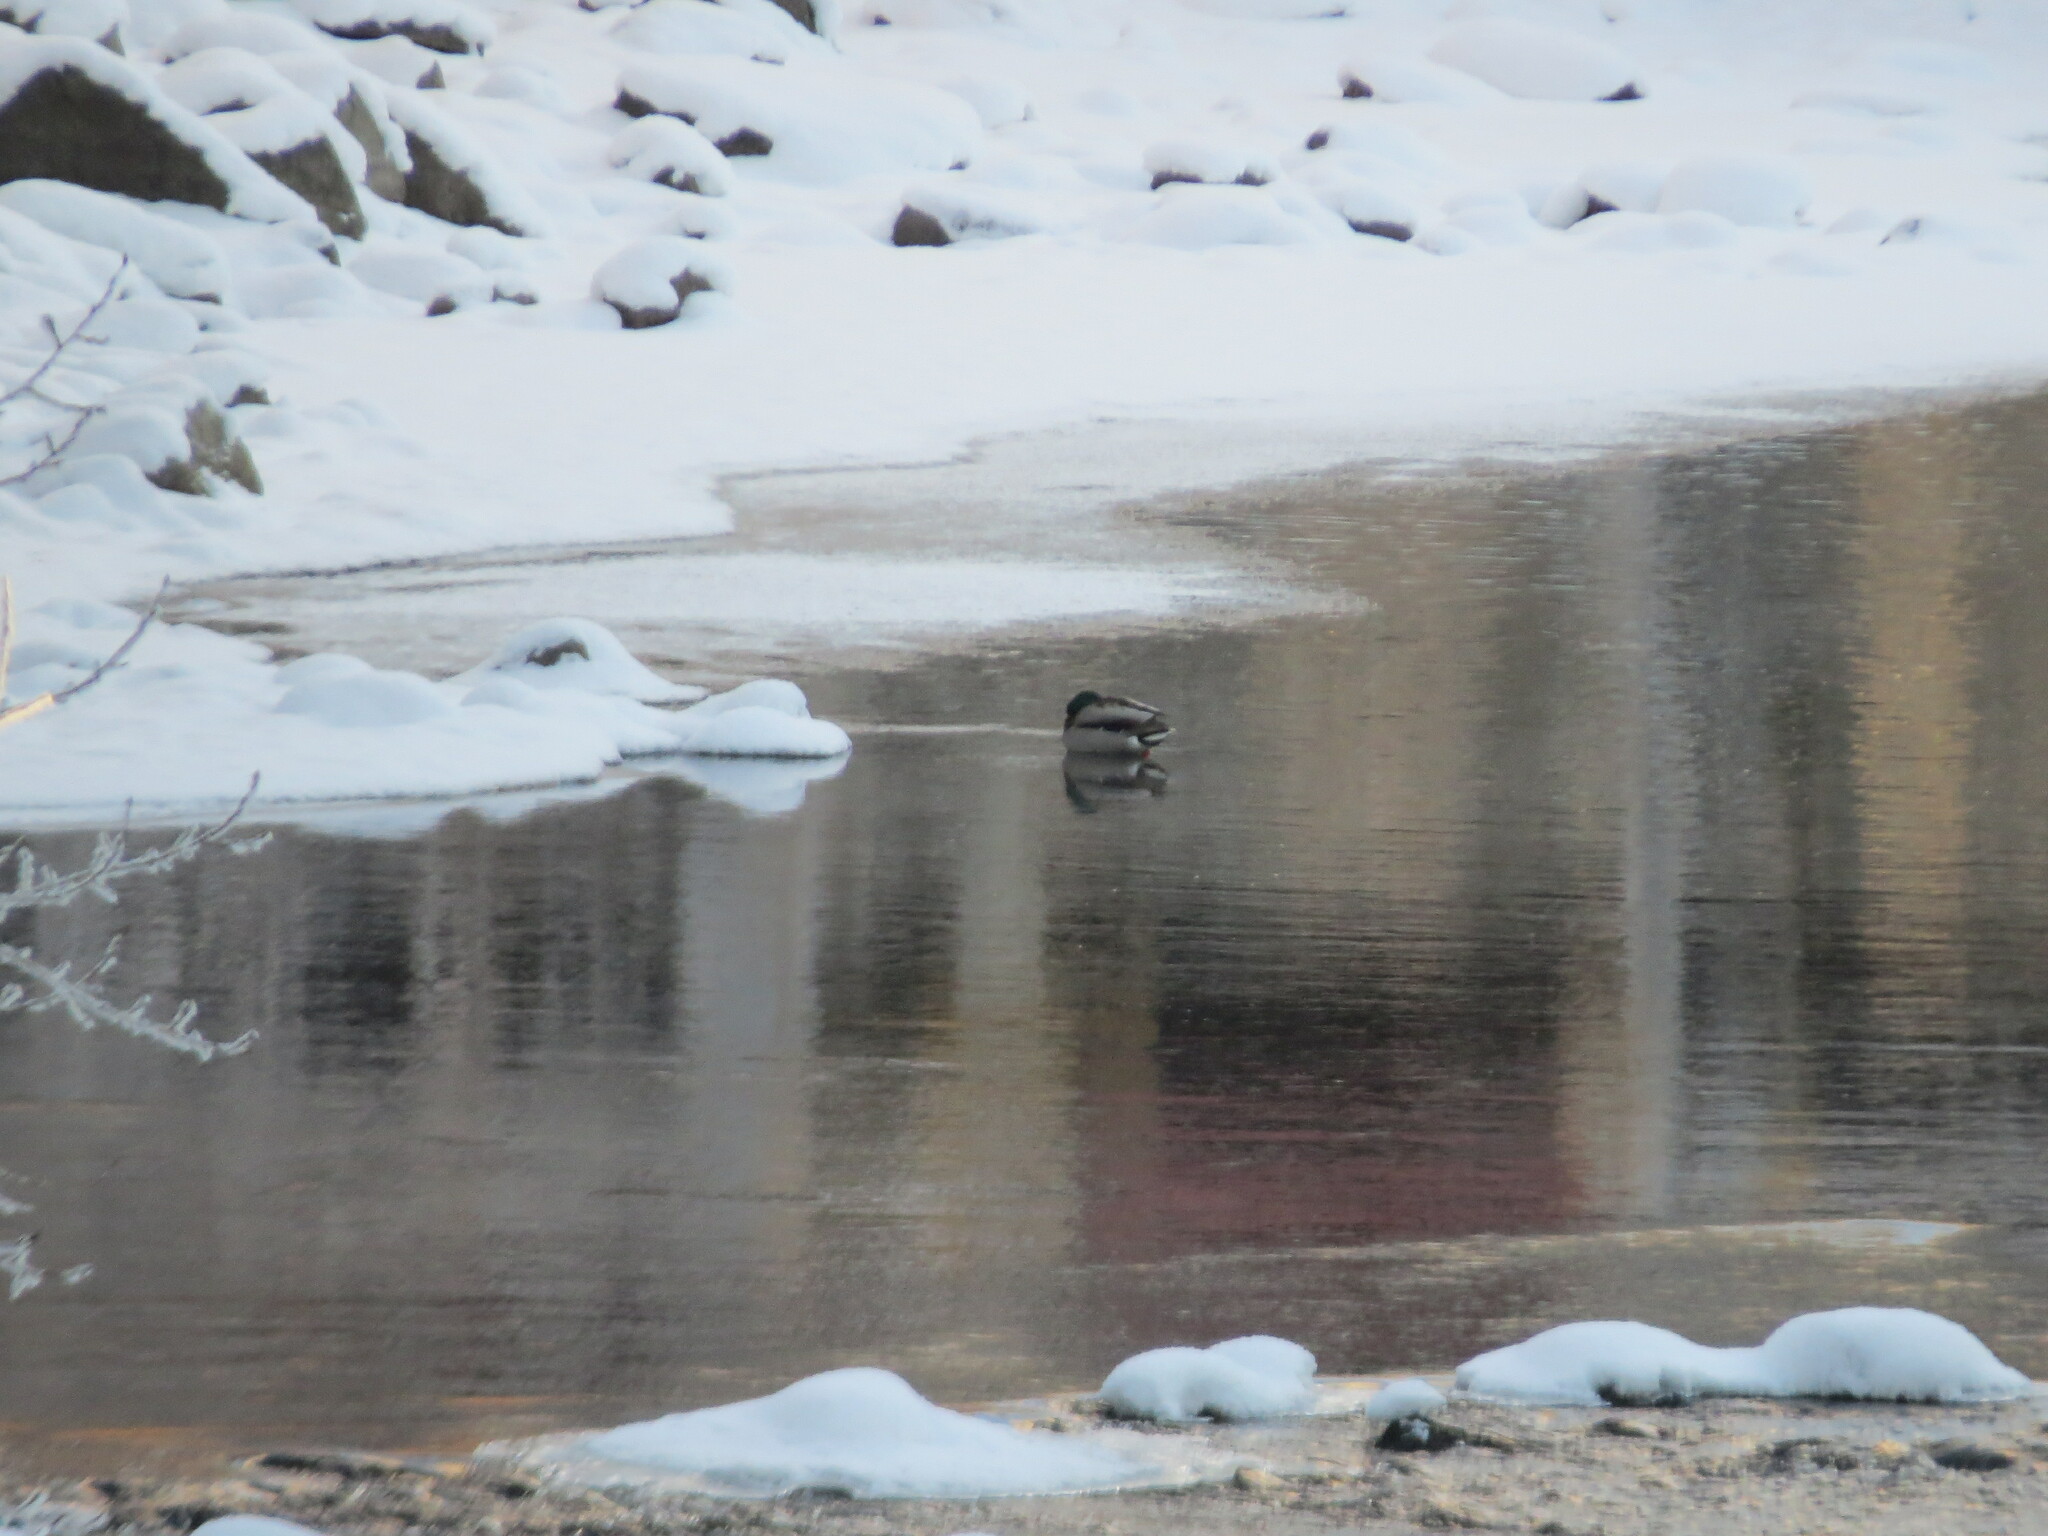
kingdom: Animalia
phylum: Chordata
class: Aves
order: Anseriformes
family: Anatidae
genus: Anas
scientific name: Anas platyrhynchos
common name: Mallard
